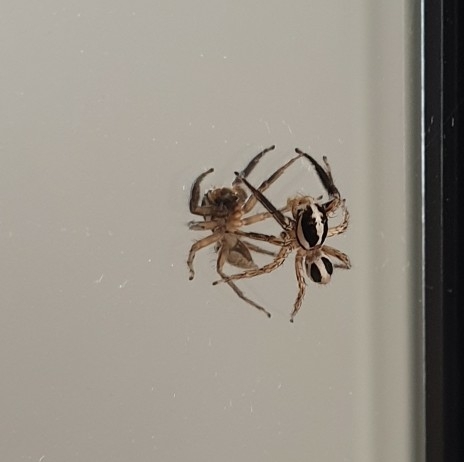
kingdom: Animalia
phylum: Arthropoda
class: Arachnida
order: Araneae
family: Salticidae
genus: Plexippus
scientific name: Plexippus paykulli
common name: Pantropical jumper
